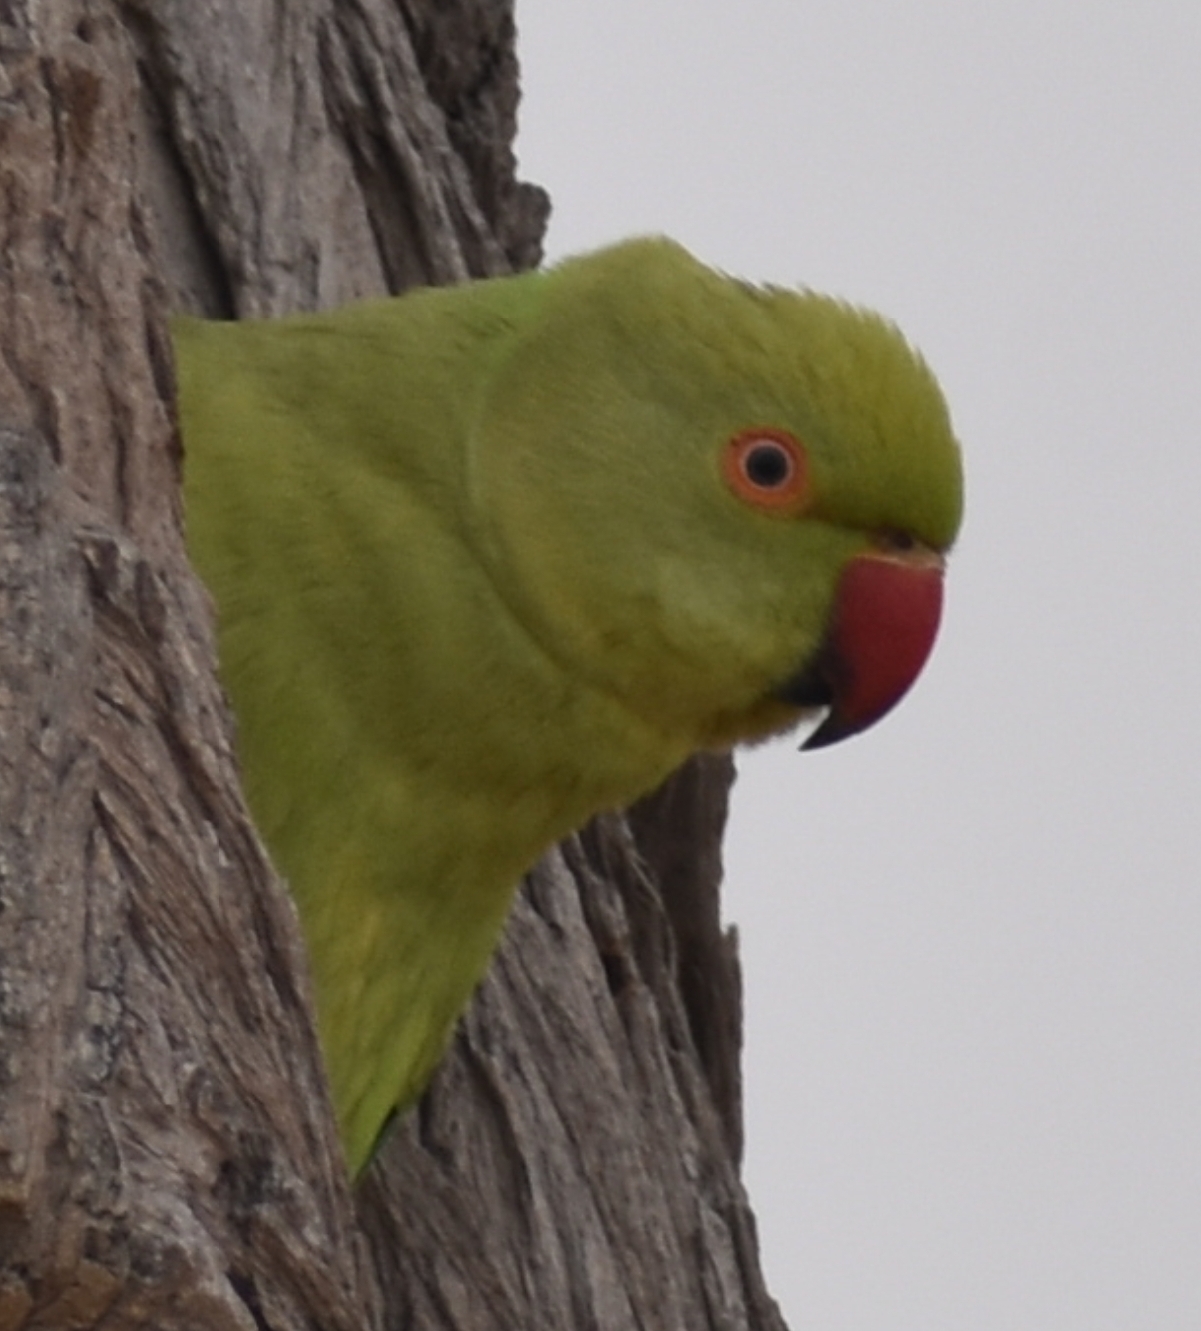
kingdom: Animalia
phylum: Chordata
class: Aves
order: Psittaciformes
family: Psittacidae
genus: Psittacula
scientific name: Psittacula krameri
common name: Rose-ringed parakeet
